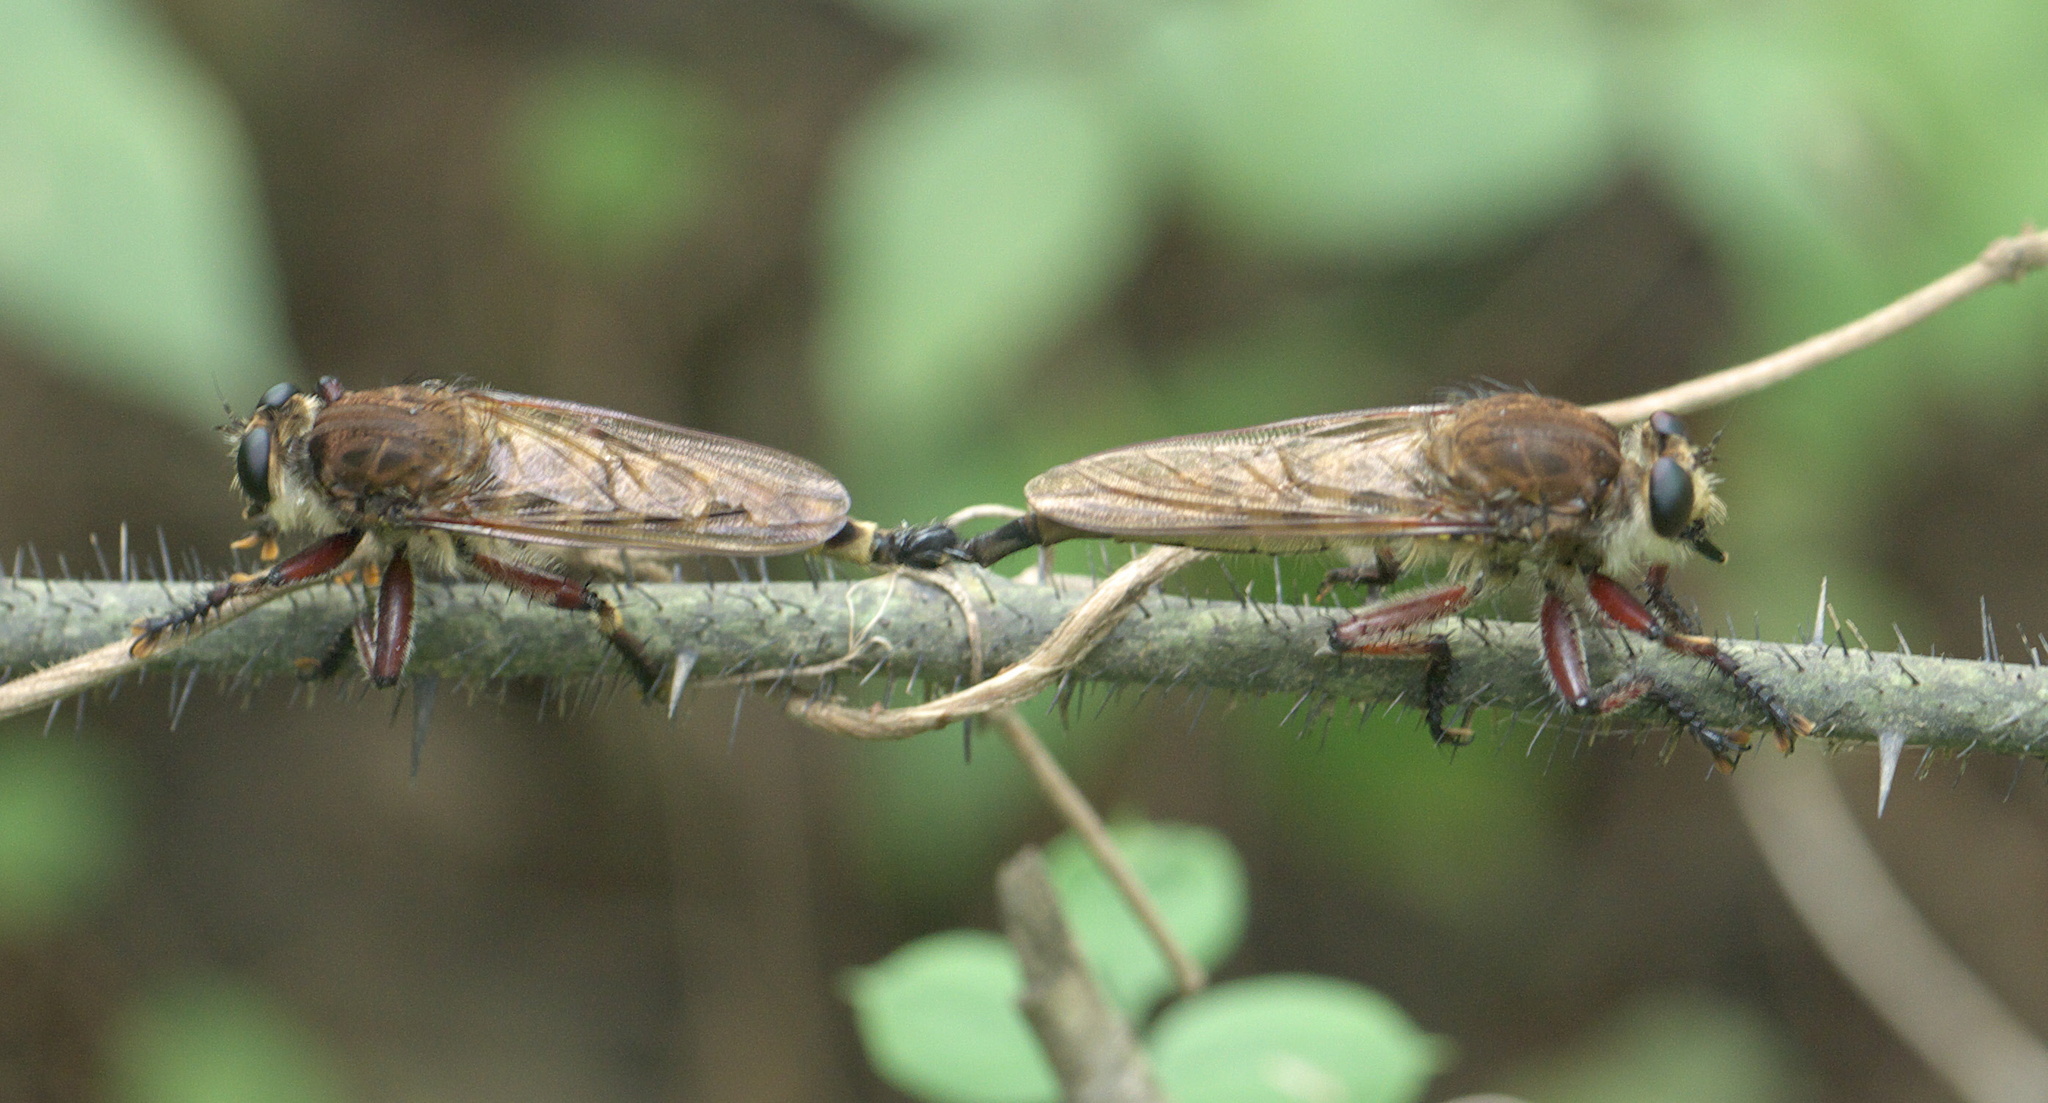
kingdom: Animalia
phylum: Arthropoda
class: Insecta
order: Diptera
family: Asilidae
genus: Promachus
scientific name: Promachus hinei
